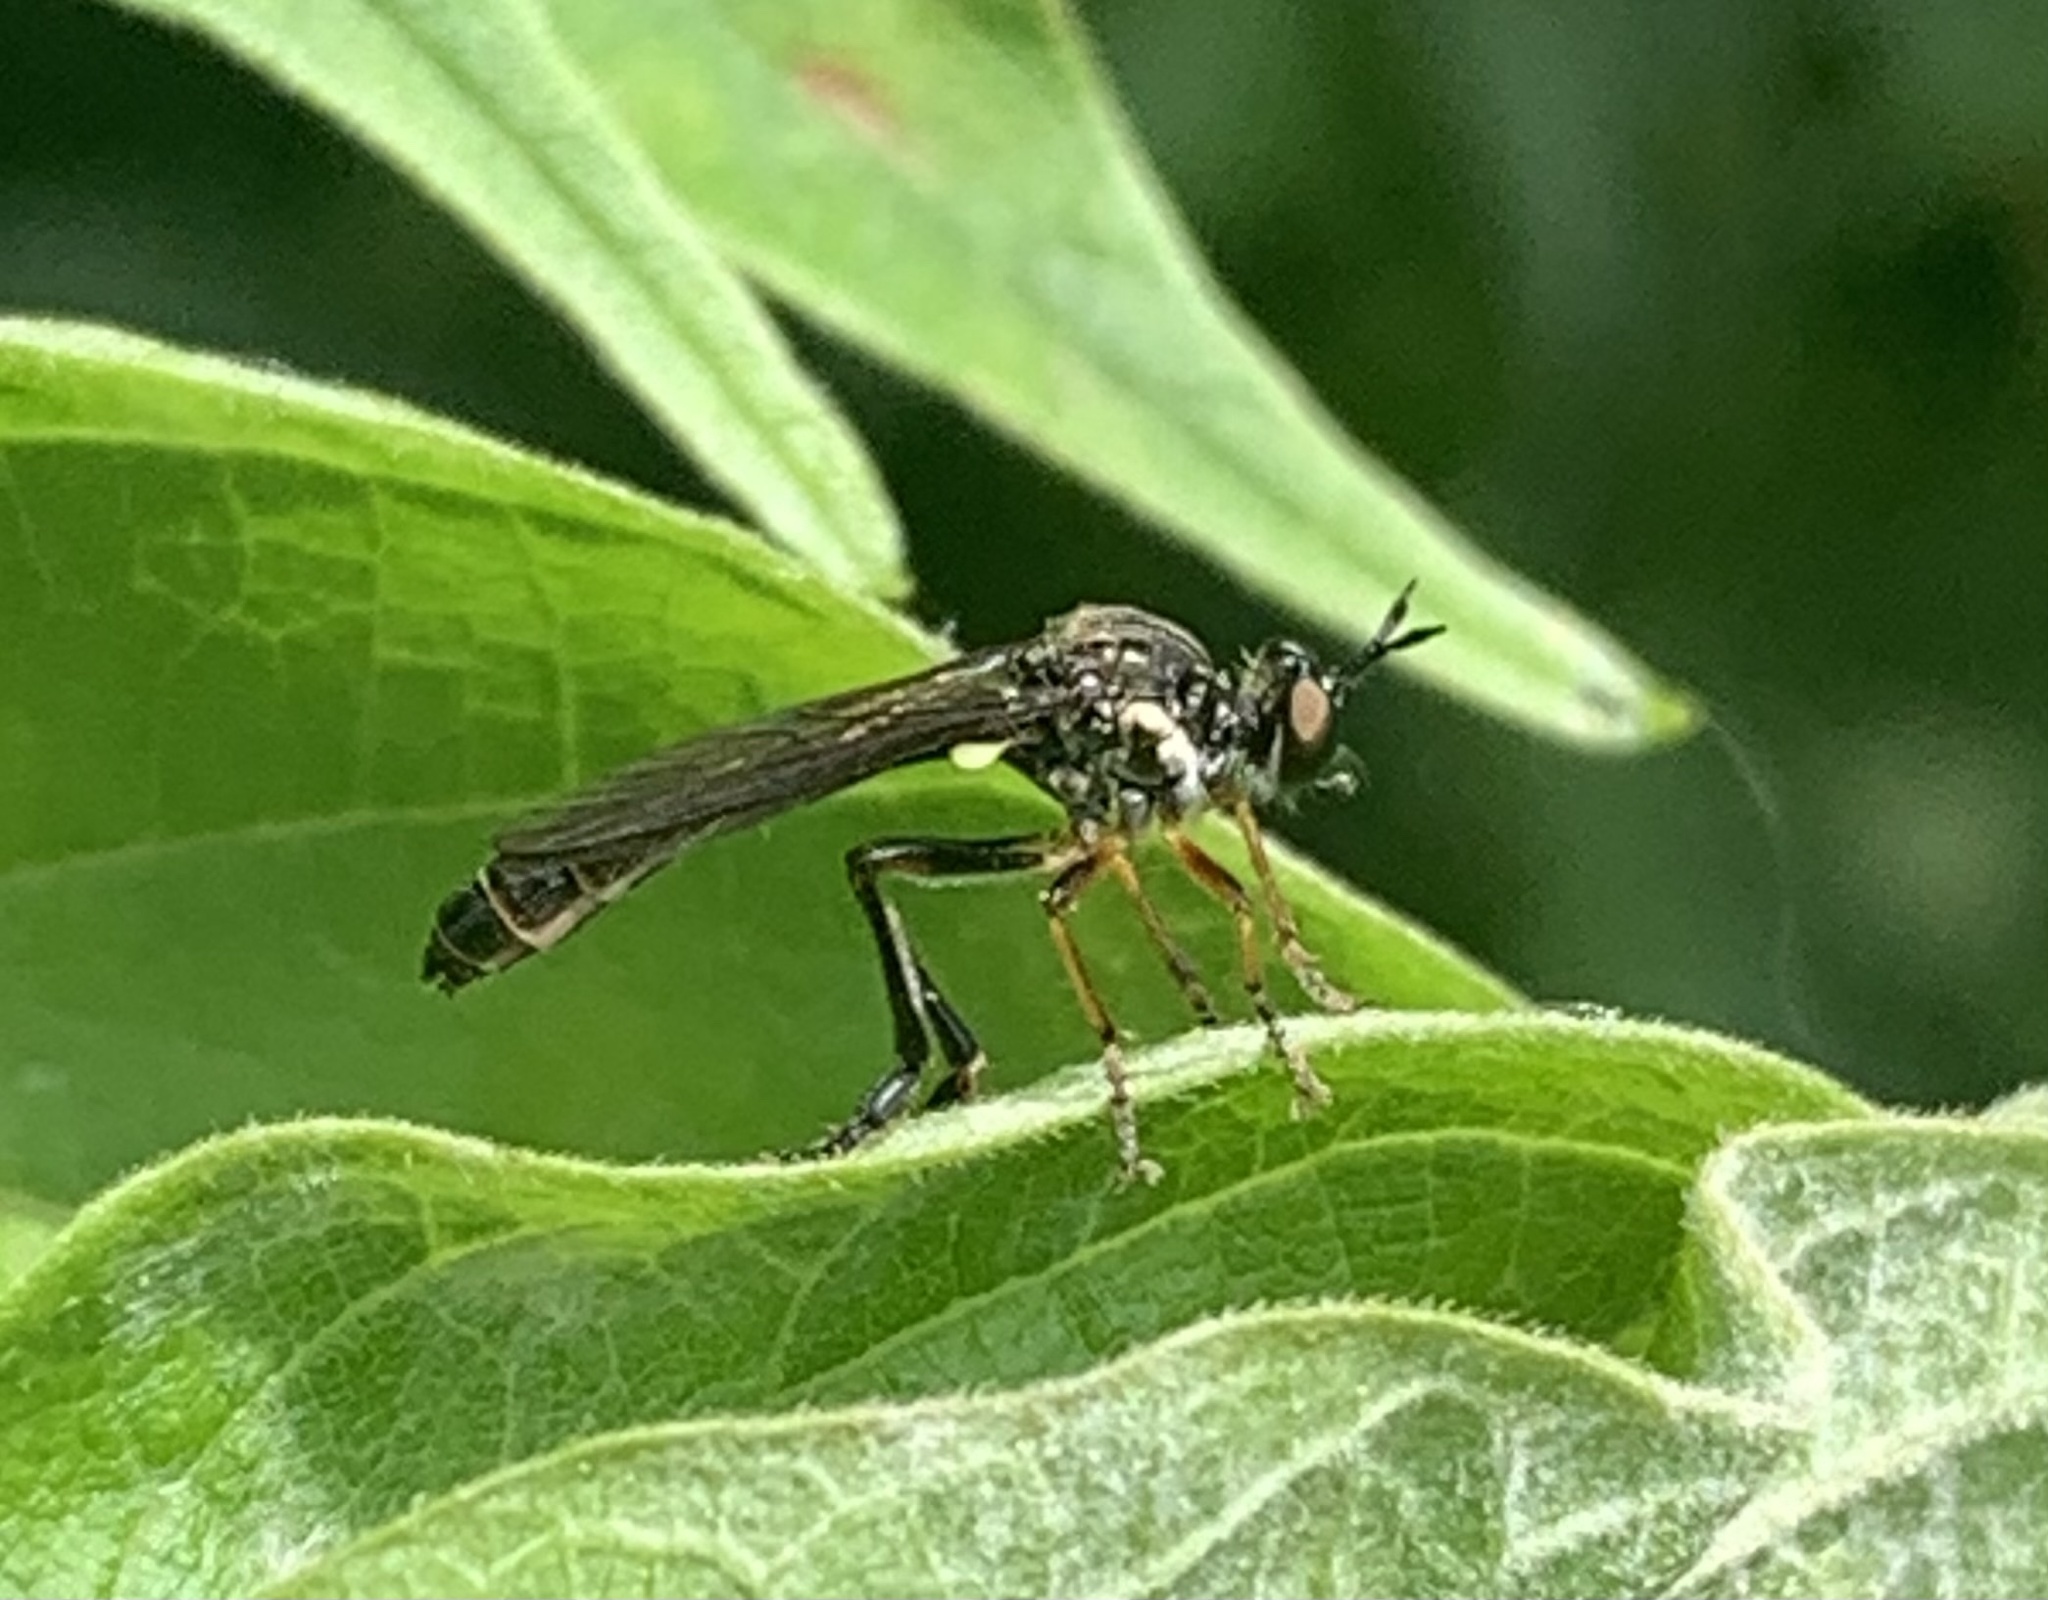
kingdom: Animalia
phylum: Arthropoda
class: Insecta
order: Diptera
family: Asilidae
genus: Dioctria
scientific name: Dioctria hyalipennis
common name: Stripe-legged robberfly
